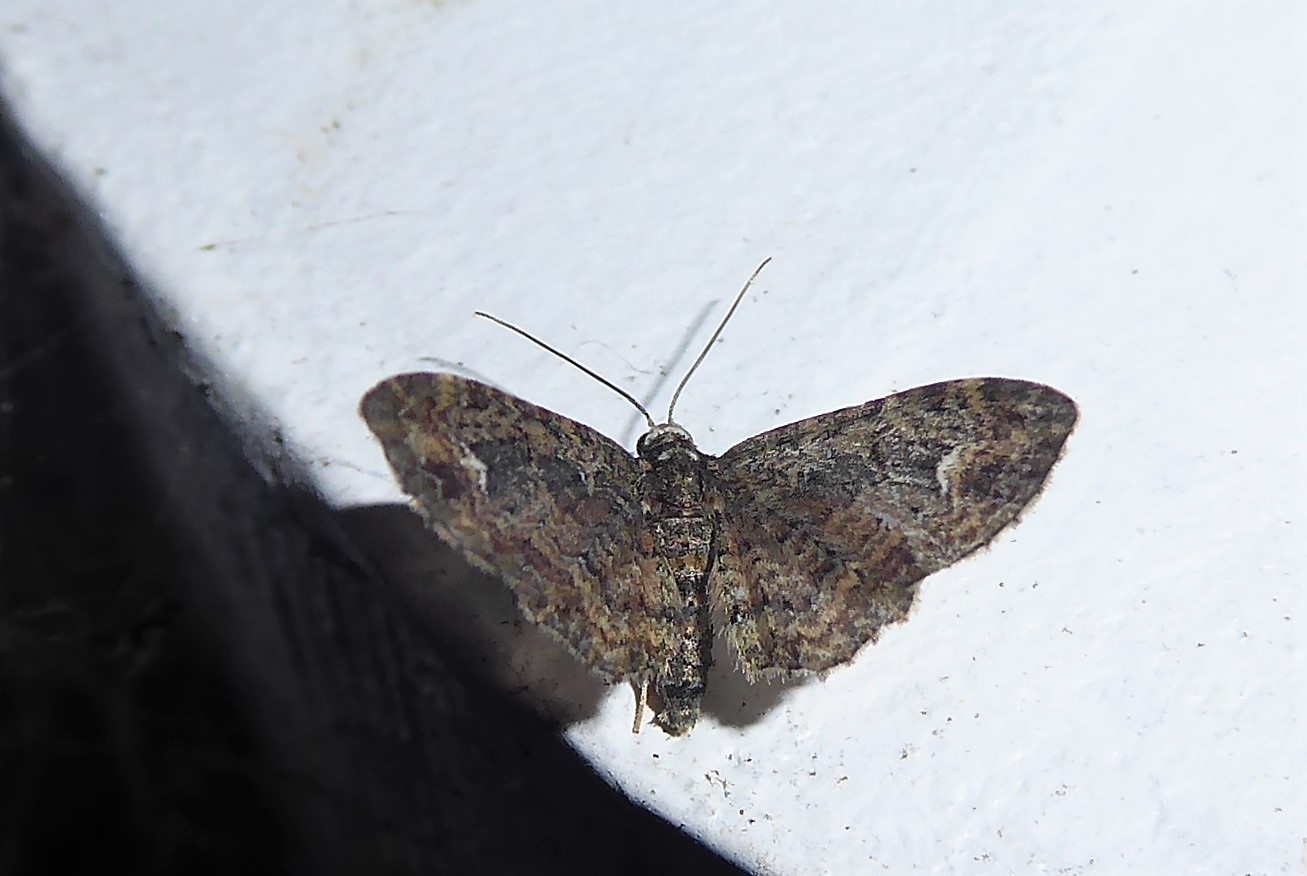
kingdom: Animalia
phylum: Arthropoda
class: Insecta
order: Lepidoptera
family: Geometridae
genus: Pasiphilodes
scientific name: Pasiphilodes testulata
